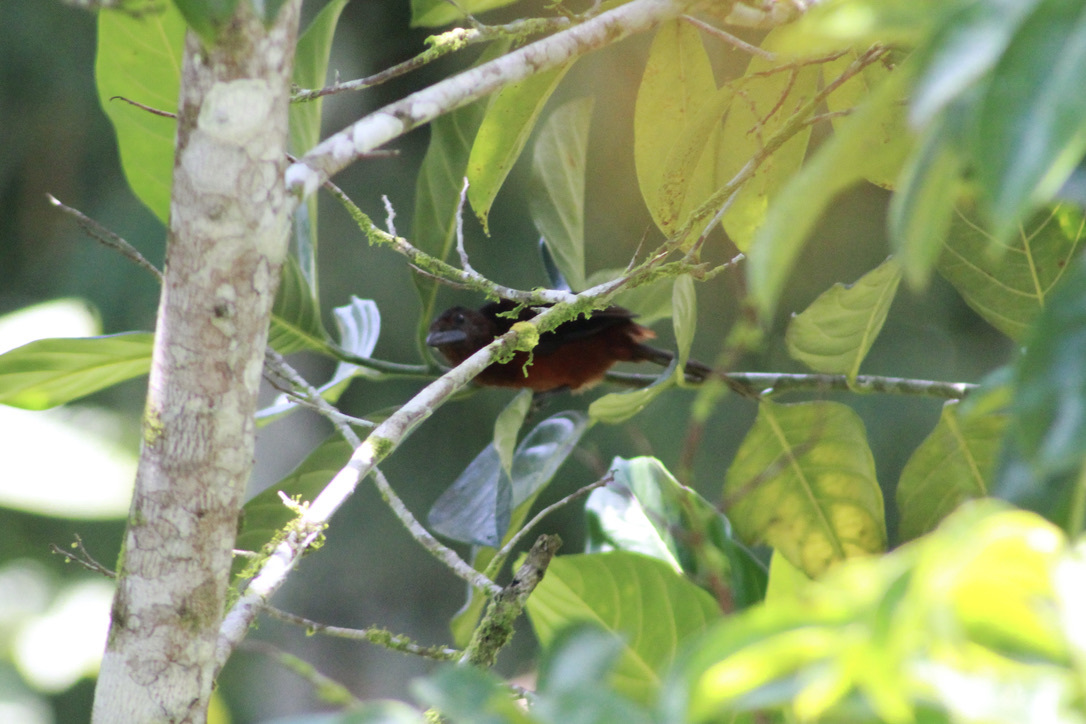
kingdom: Animalia
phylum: Chordata
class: Aves
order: Passeriformes
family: Thraupidae
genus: Ramphocelus
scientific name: Ramphocelus carbo
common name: Silver-beaked tanager
